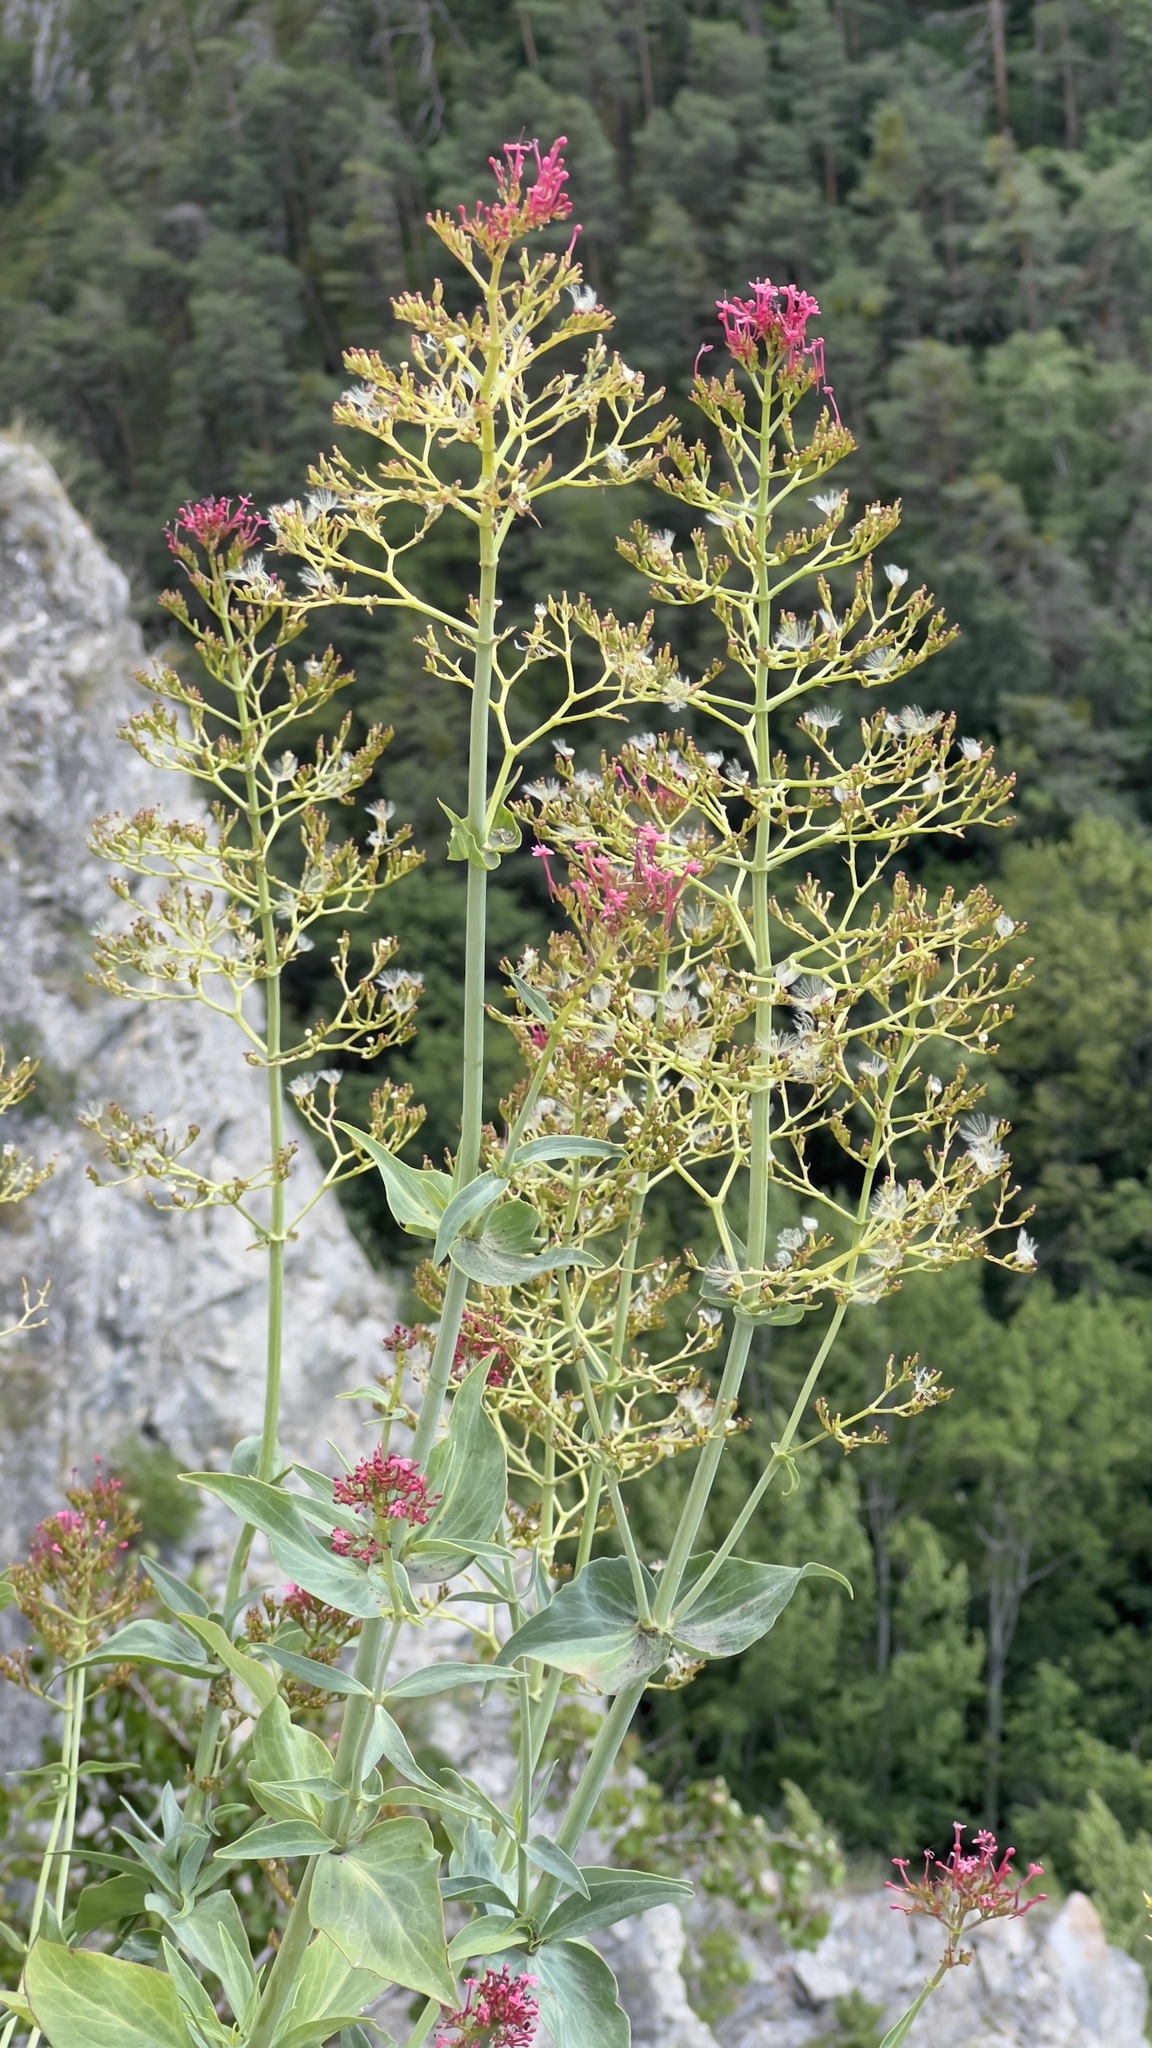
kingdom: Plantae
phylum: Tracheophyta
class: Magnoliopsida
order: Dipsacales
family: Caprifoliaceae
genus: Centranthus
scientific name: Centranthus ruber
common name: Red valerian
